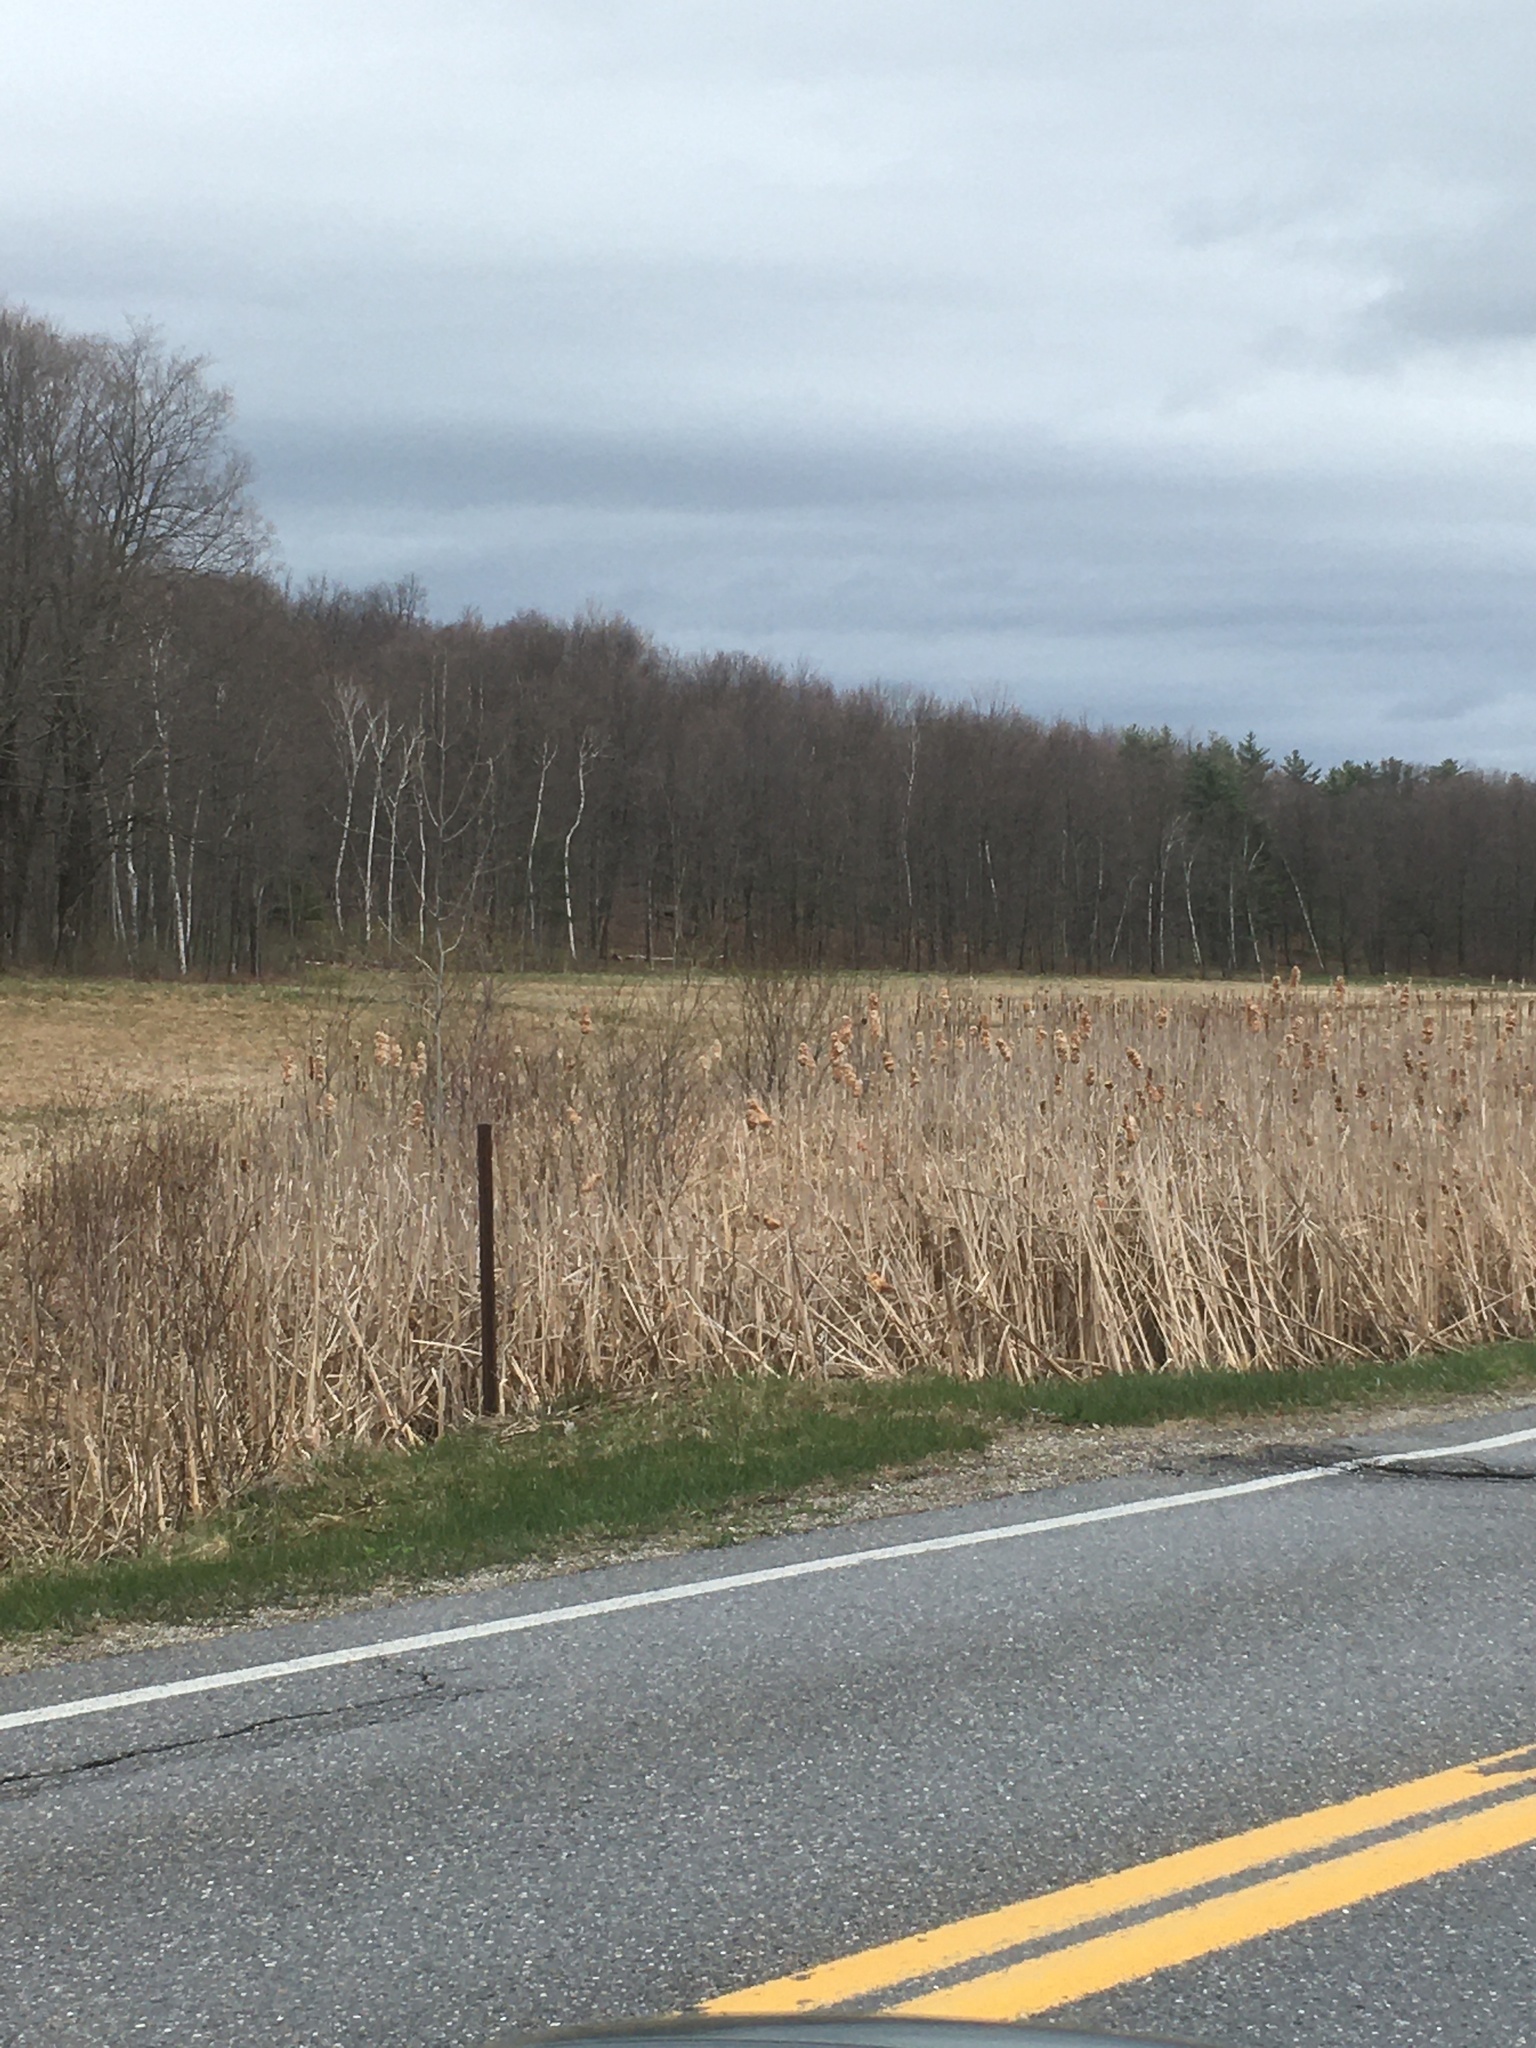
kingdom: Plantae
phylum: Tracheophyta
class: Liliopsida
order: Poales
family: Typhaceae
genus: Typha
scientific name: Typha latifolia
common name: Broadleaf cattail
